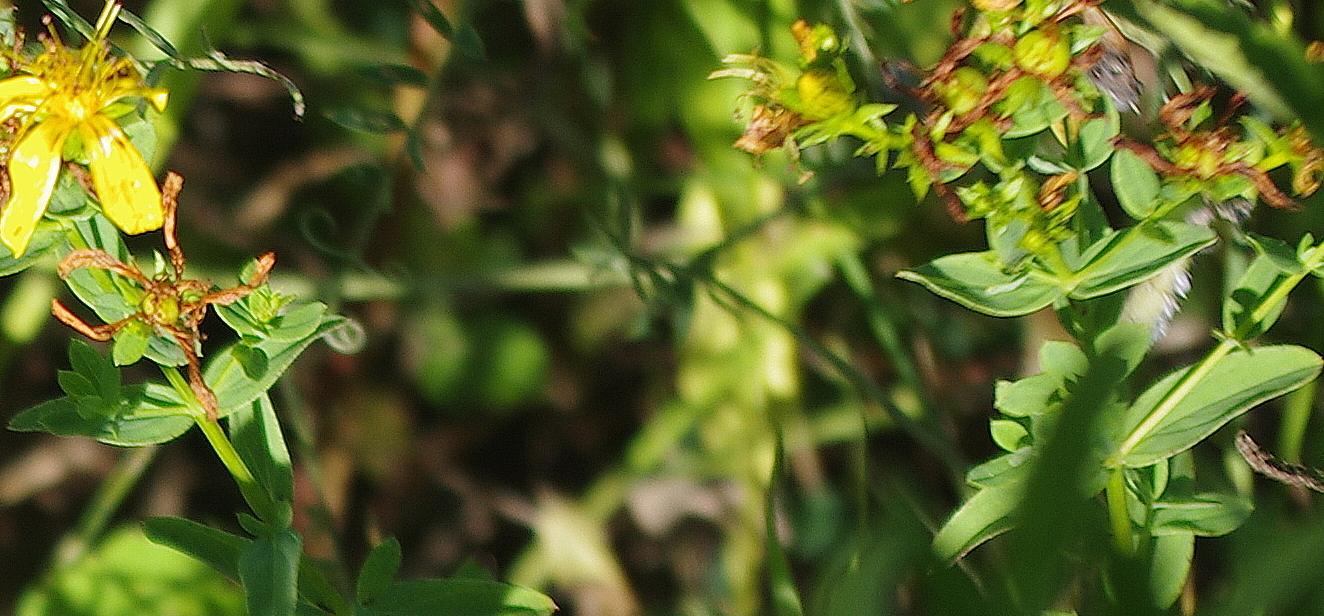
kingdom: Plantae
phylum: Tracheophyta
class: Magnoliopsida
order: Malpighiales
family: Hypericaceae
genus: Hypericum
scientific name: Hypericum perforatum
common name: Common st. johnswort
